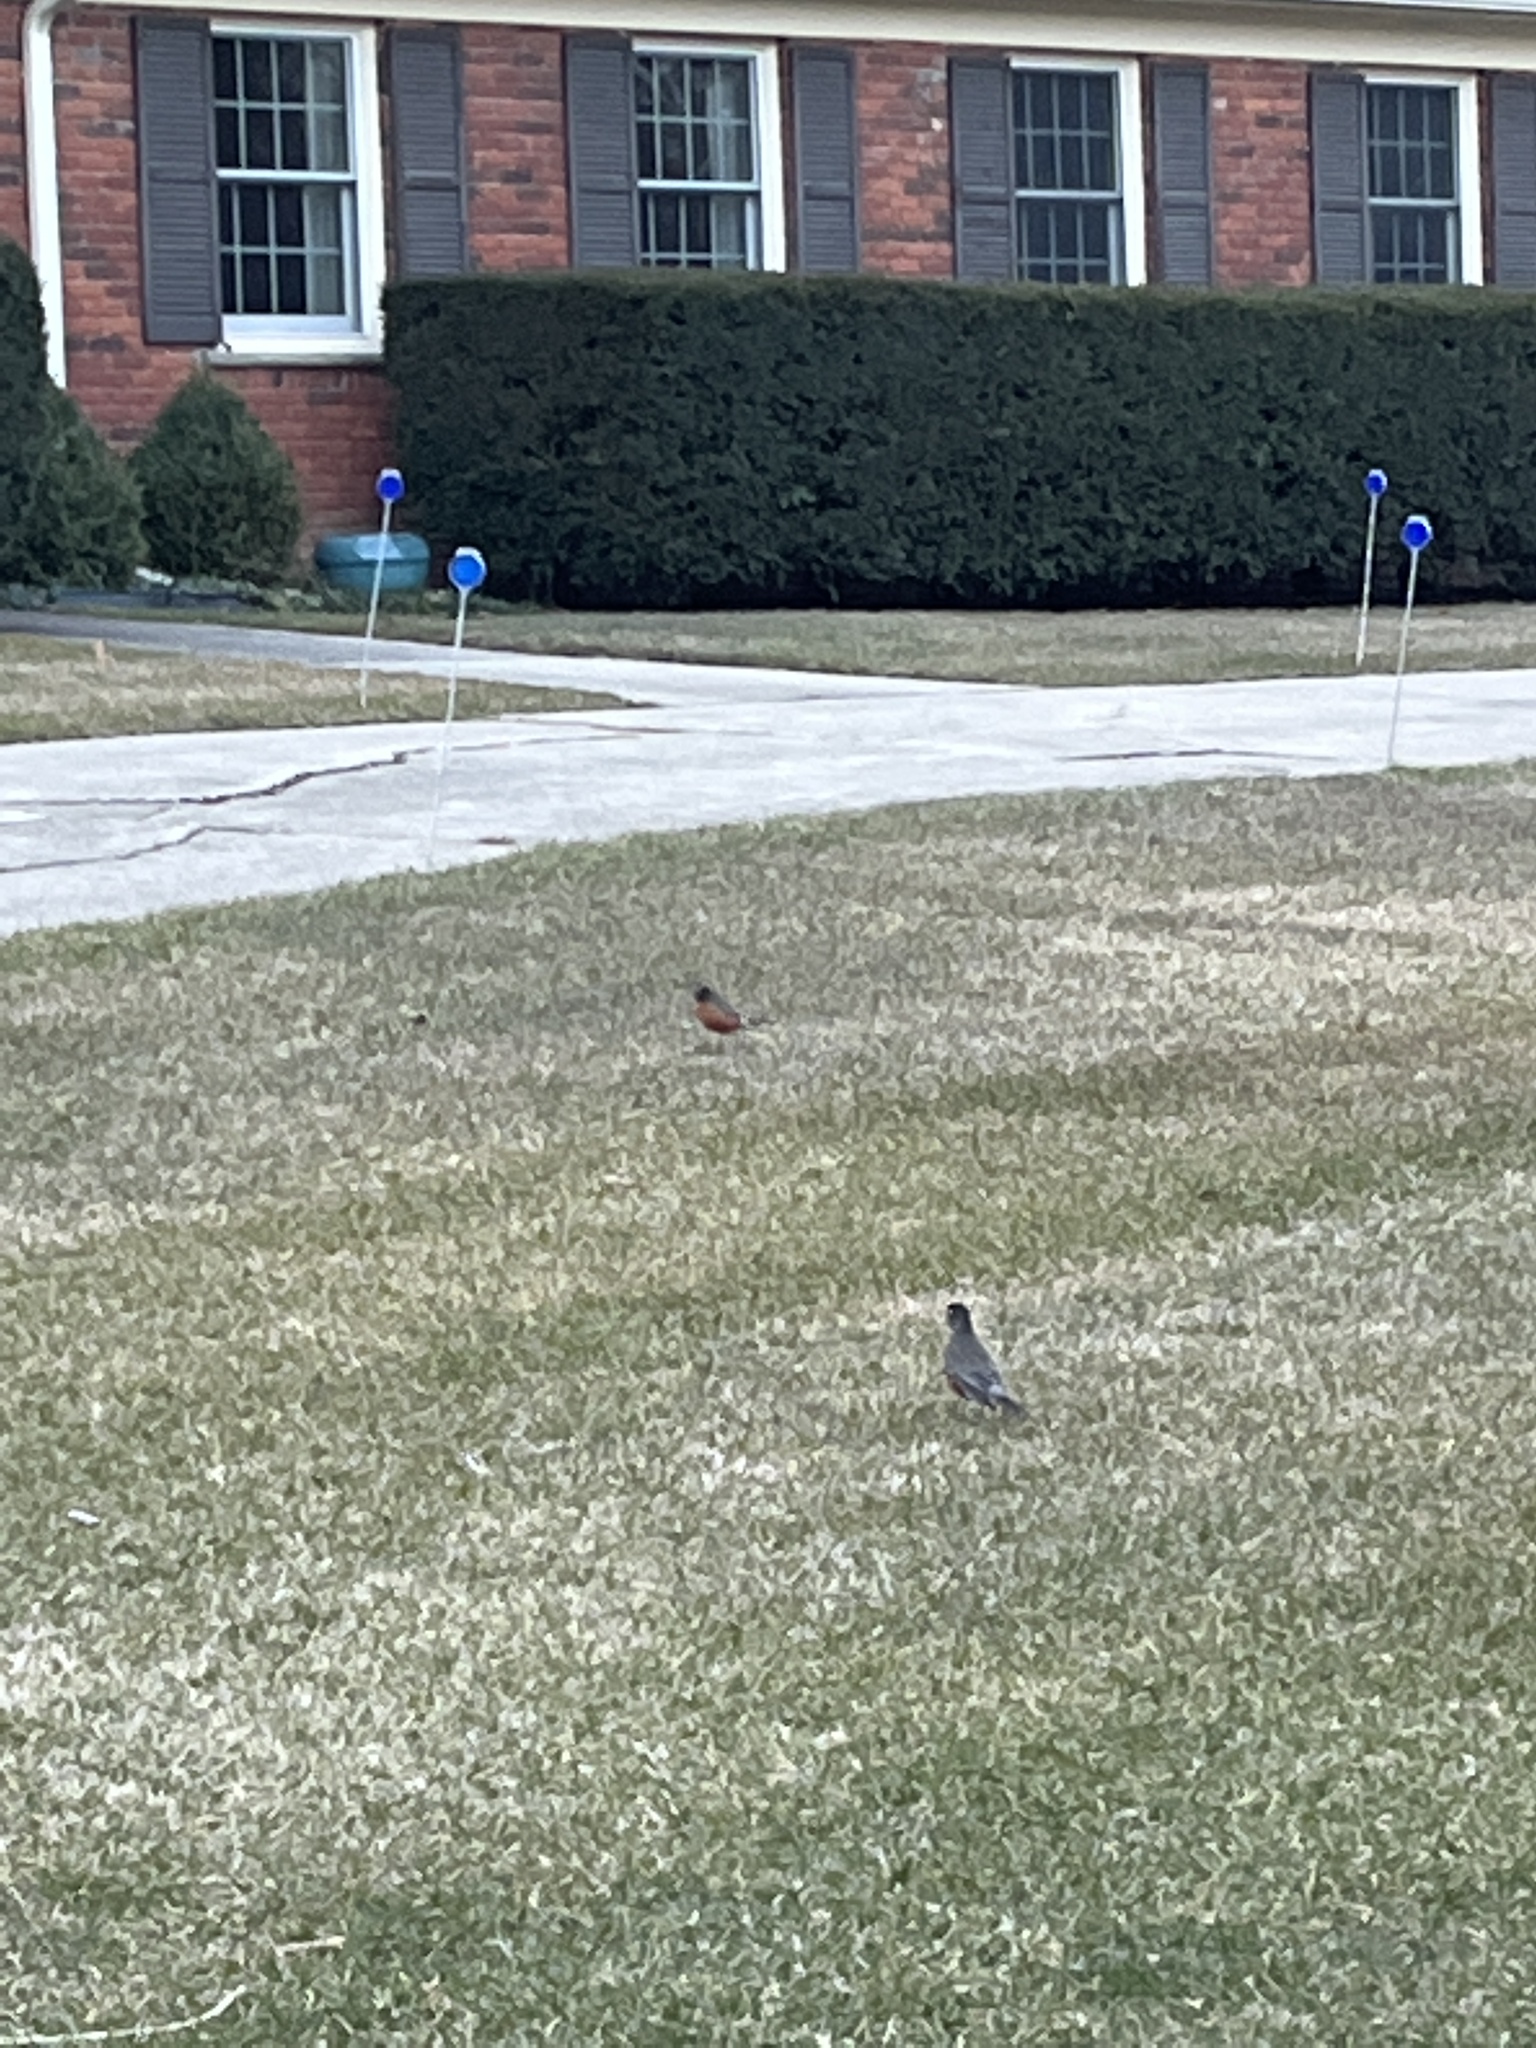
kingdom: Animalia
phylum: Chordata
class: Aves
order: Passeriformes
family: Turdidae
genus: Turdus
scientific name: Turdus migratorius
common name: American robin
